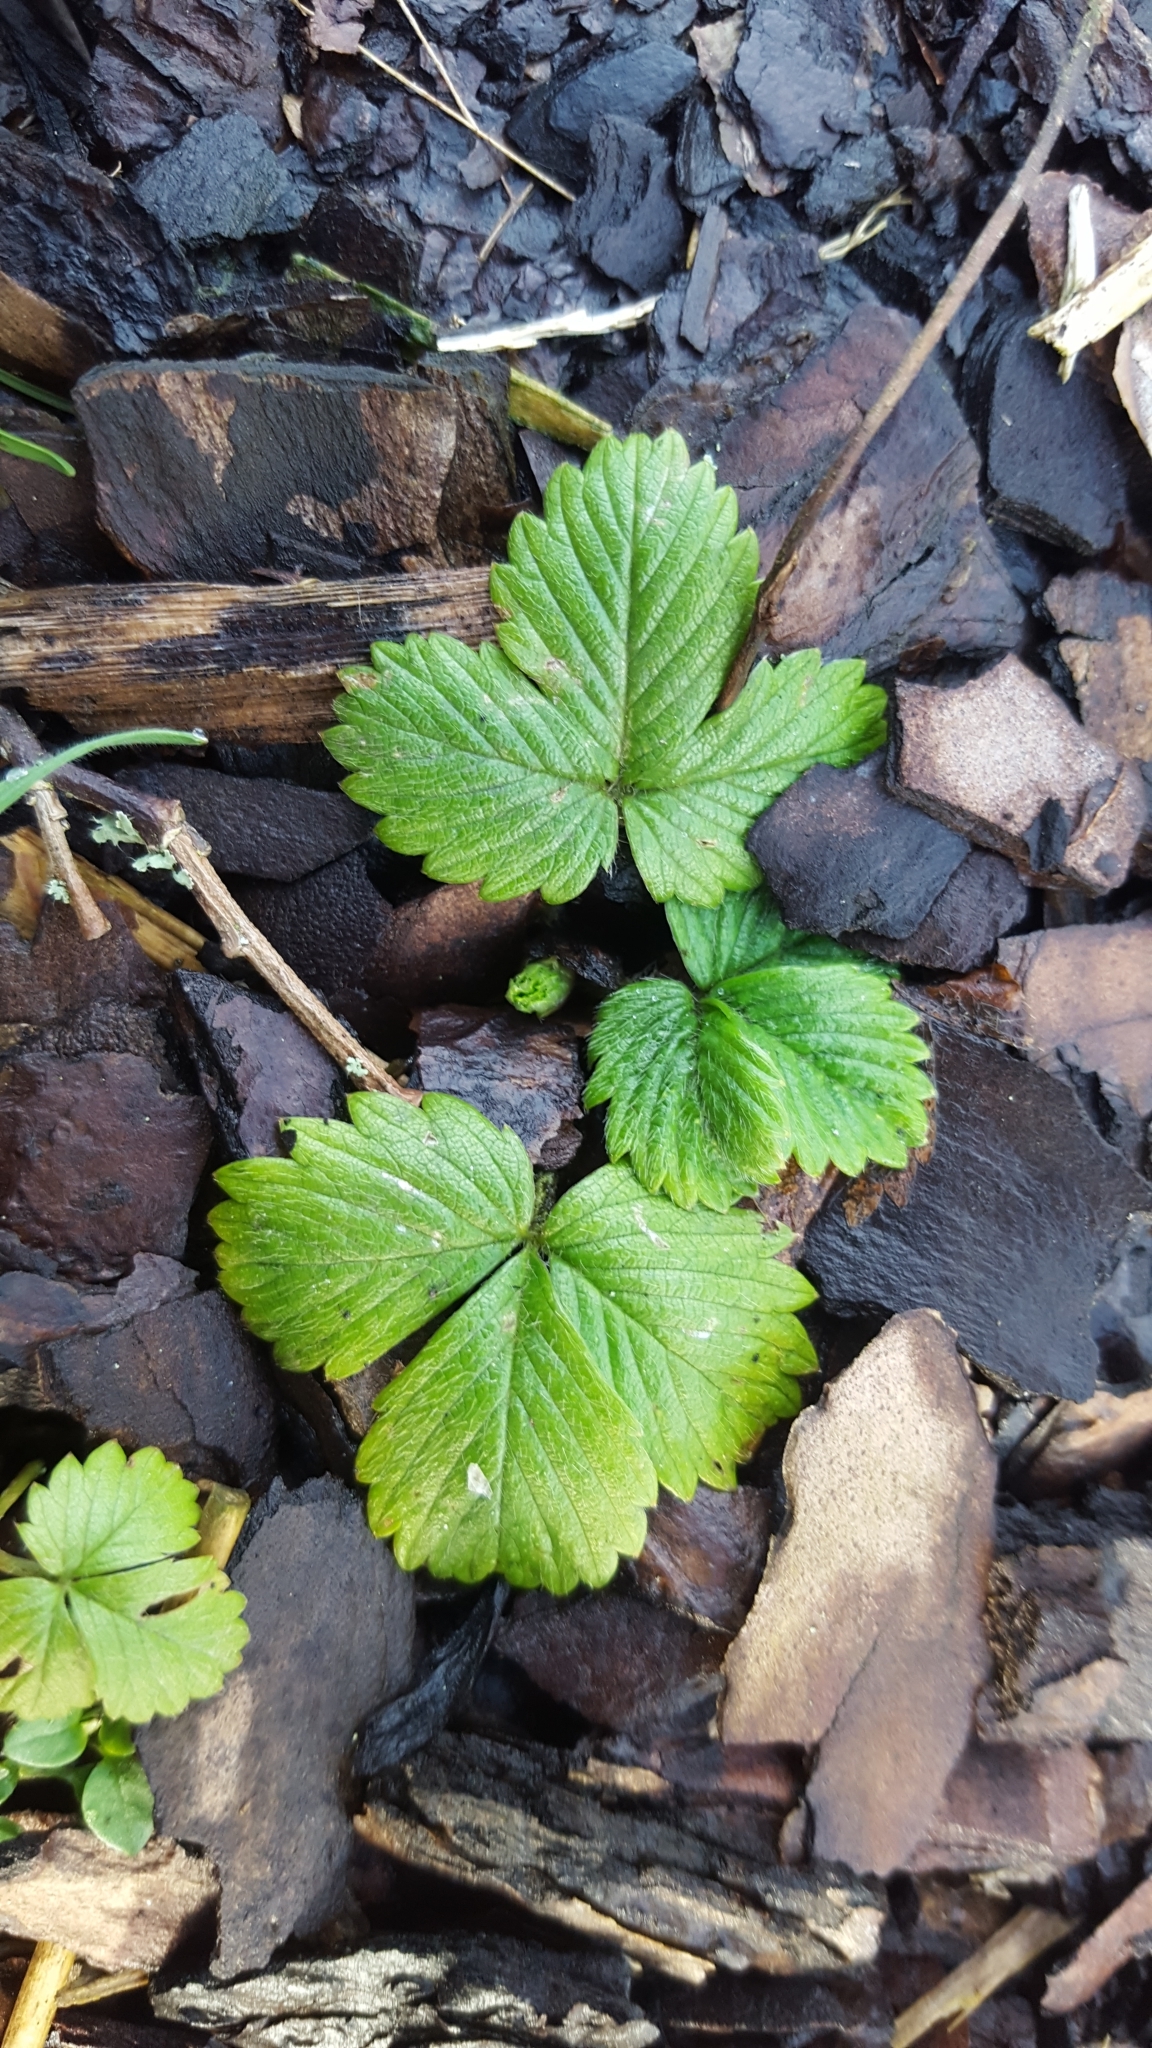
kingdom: Plantae
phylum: Tracheophyta
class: Magnoliopsida
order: Rosales
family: Rosaceae
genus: Fragaria
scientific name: Fragaria vesca
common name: Wild strawberry
